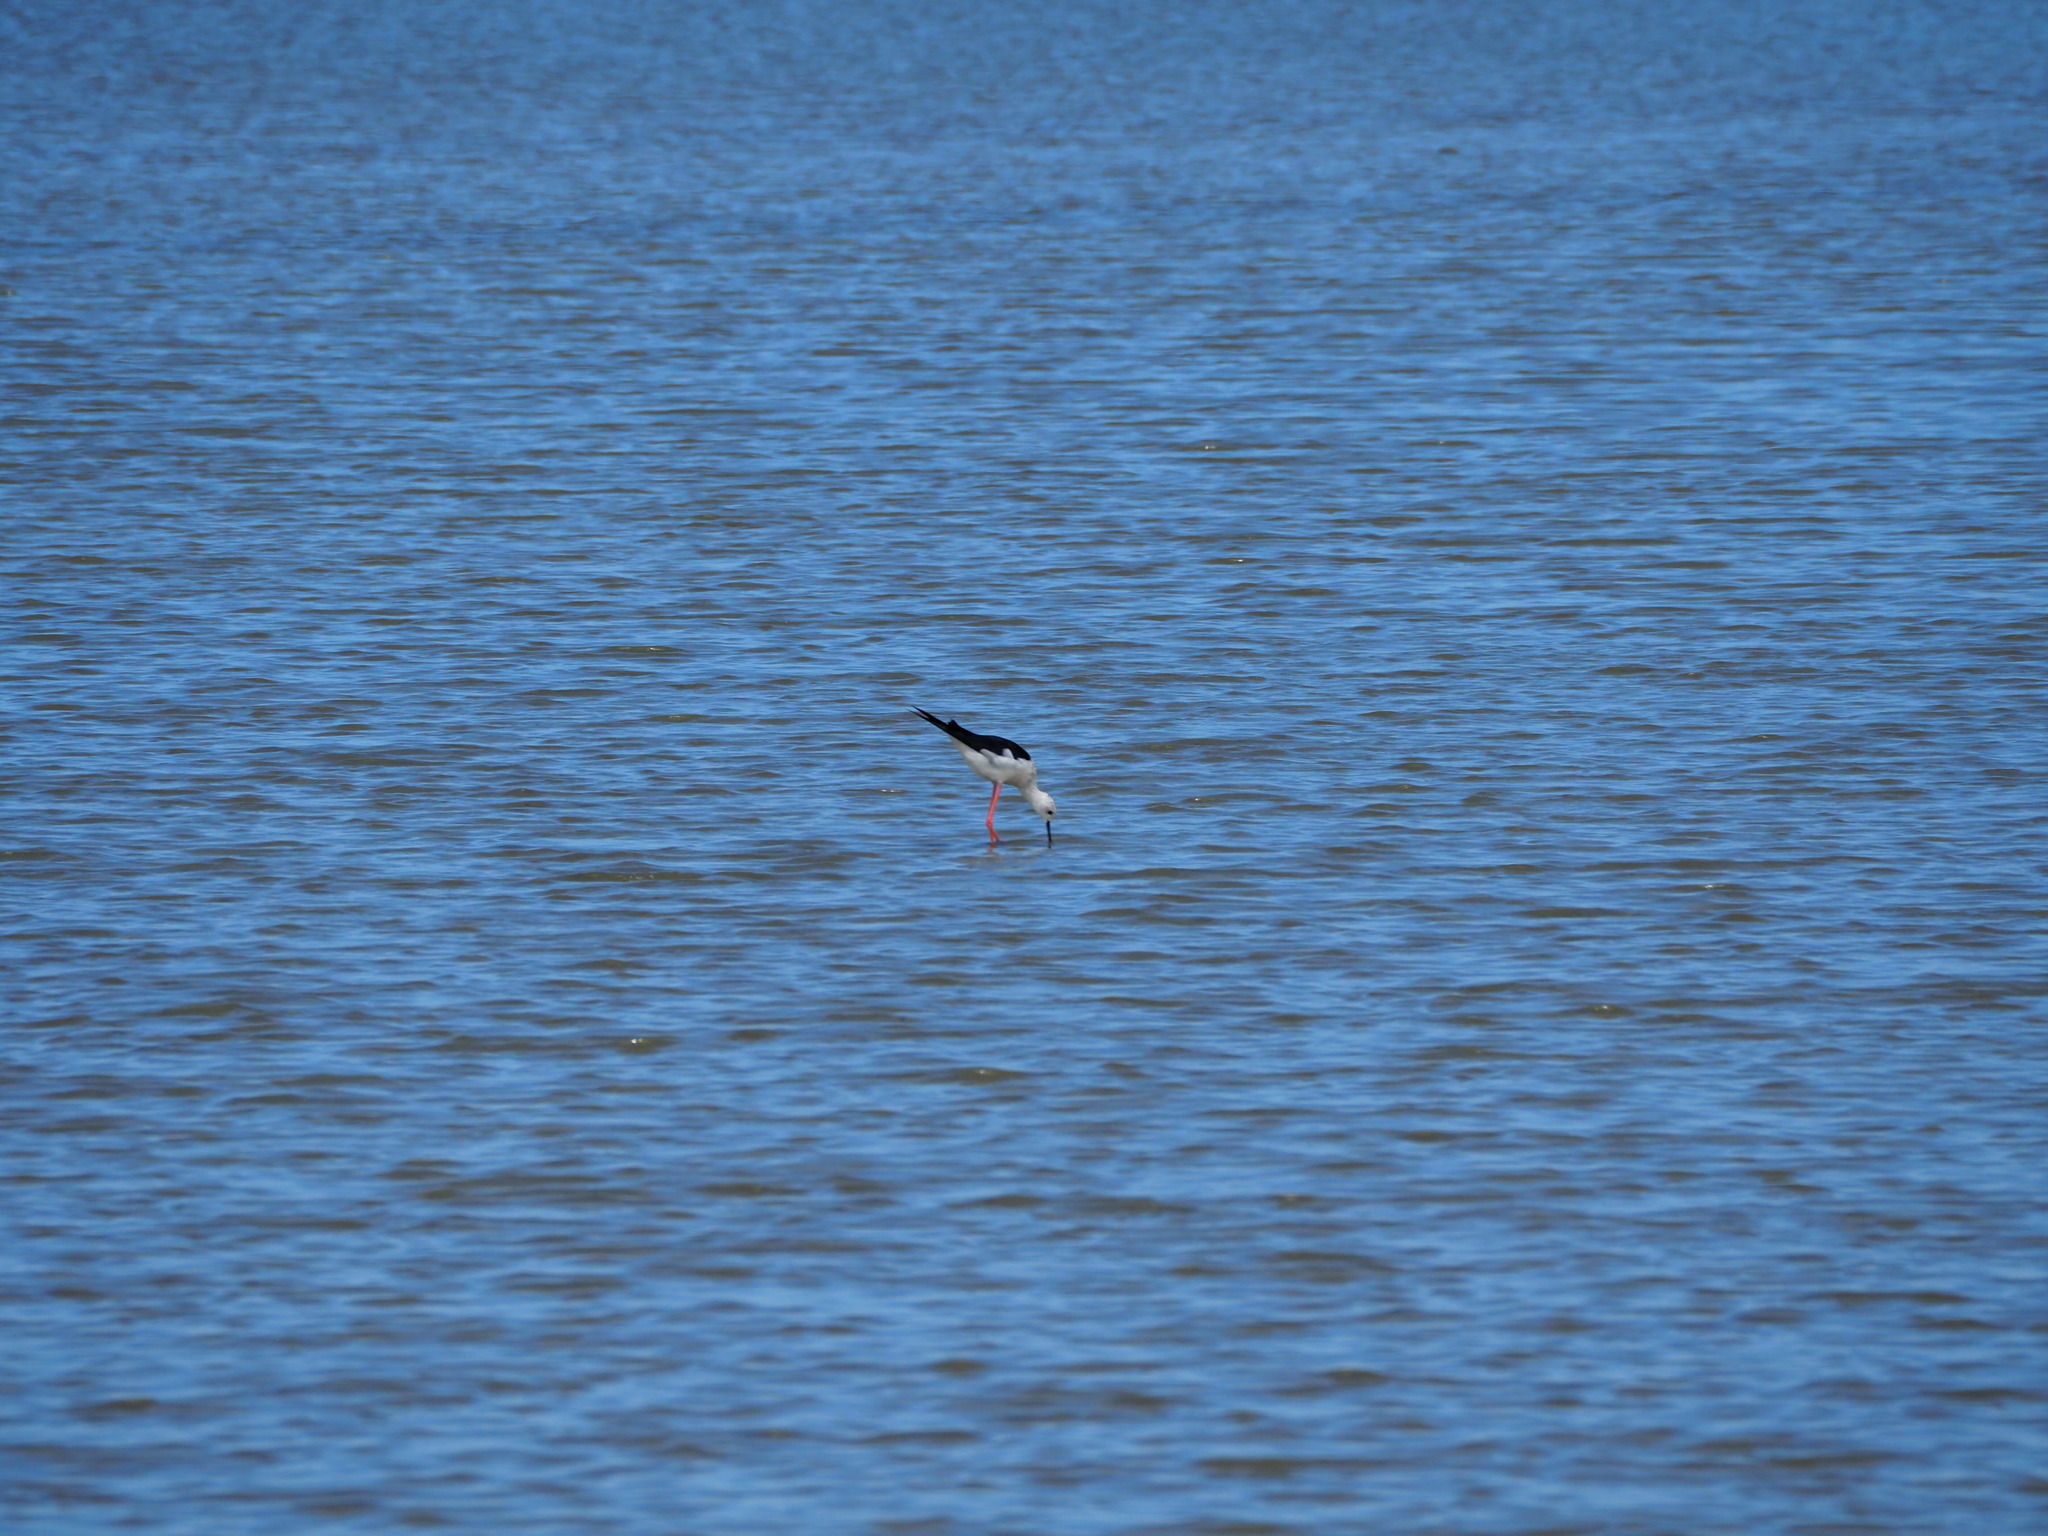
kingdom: Animalia
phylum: Chordata
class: Aves
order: Charadriiformes
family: Recurvirostridae
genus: Himantopus
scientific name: Himantopus himantopus
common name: Black-winged stilt
